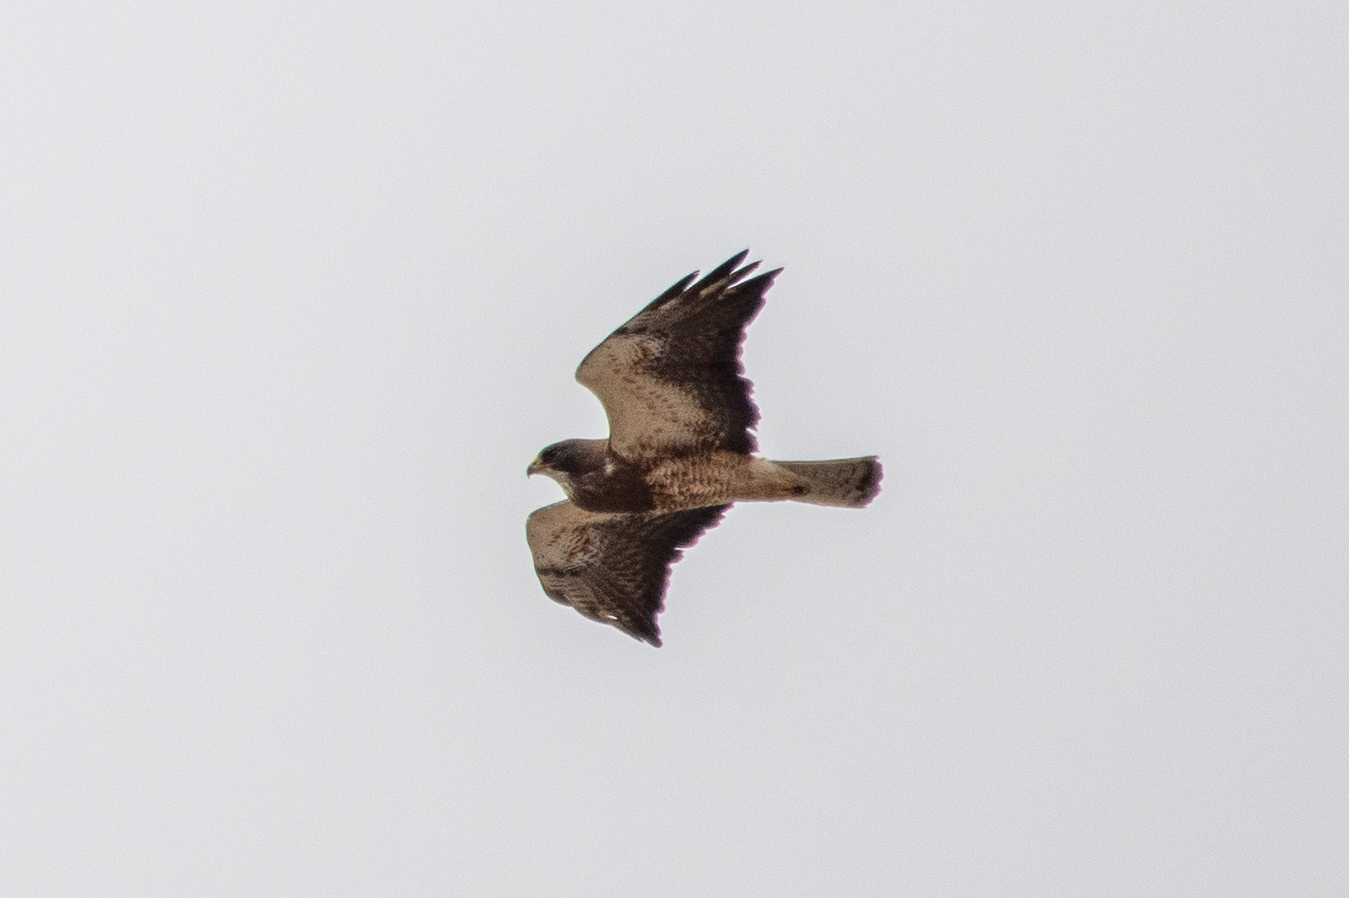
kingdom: Animalia
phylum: Chordata
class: Aves
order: Accipitriformes
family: Accipitridae
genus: Buteo
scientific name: Buteo swainsoni
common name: Swainson's hawk
